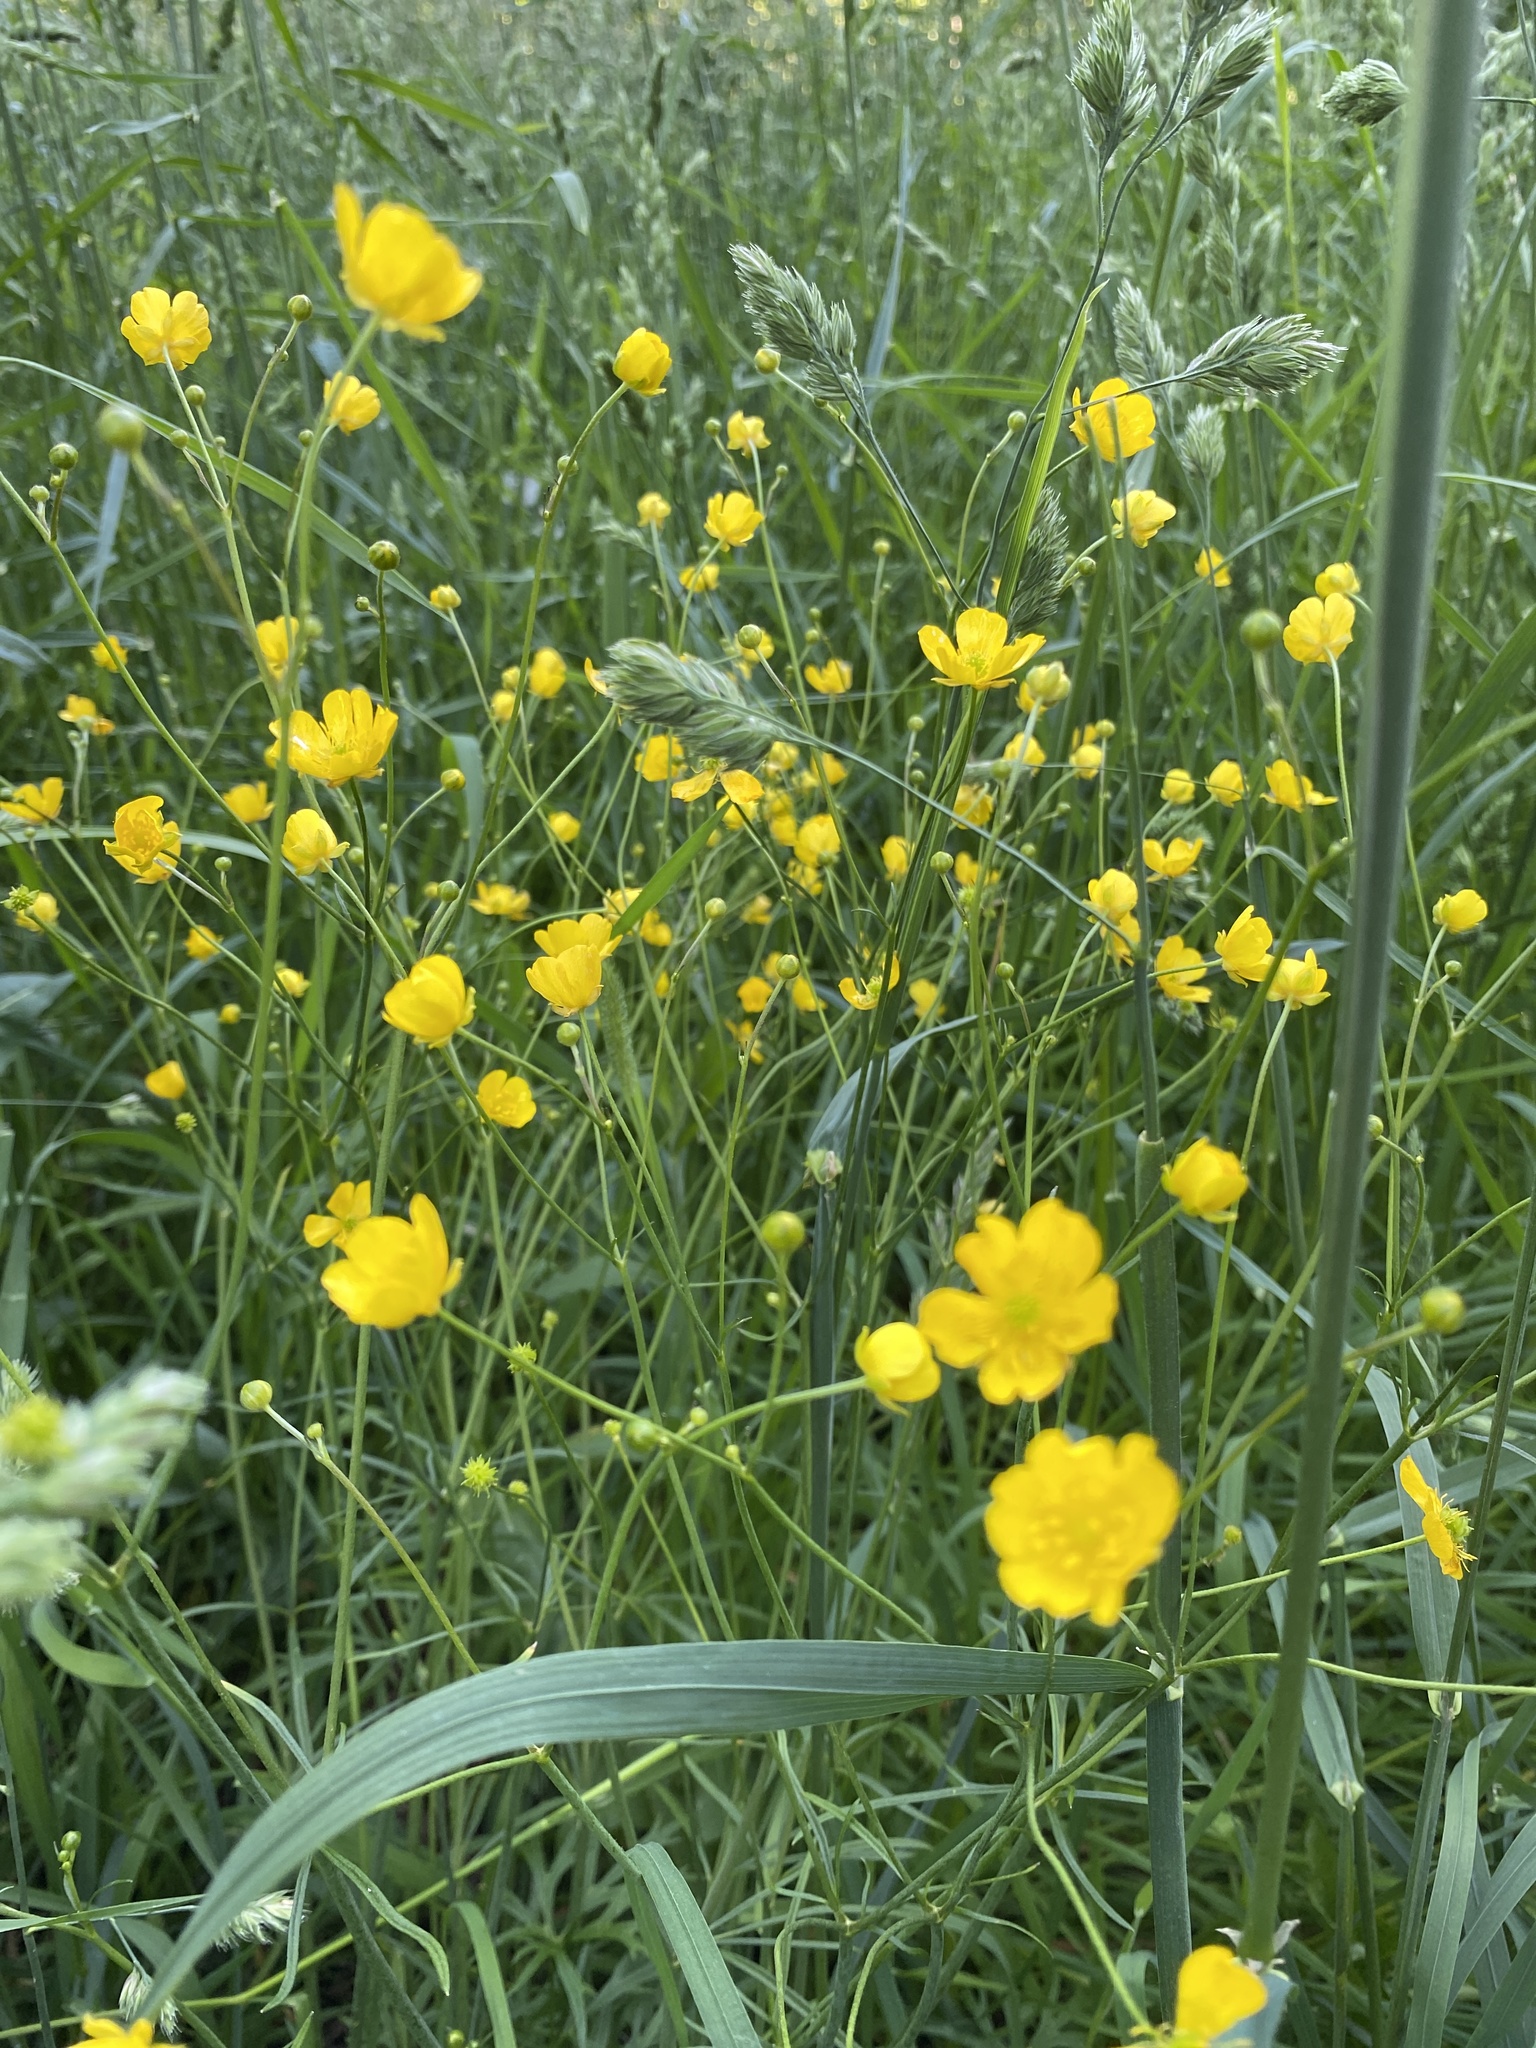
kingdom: Plantae
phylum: Tracheophyta
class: Magnoliopsida
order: Ranunculales
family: Ranunculaceae
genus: Ranunculus
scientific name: Ranunculus acris
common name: Meadow buttercup
